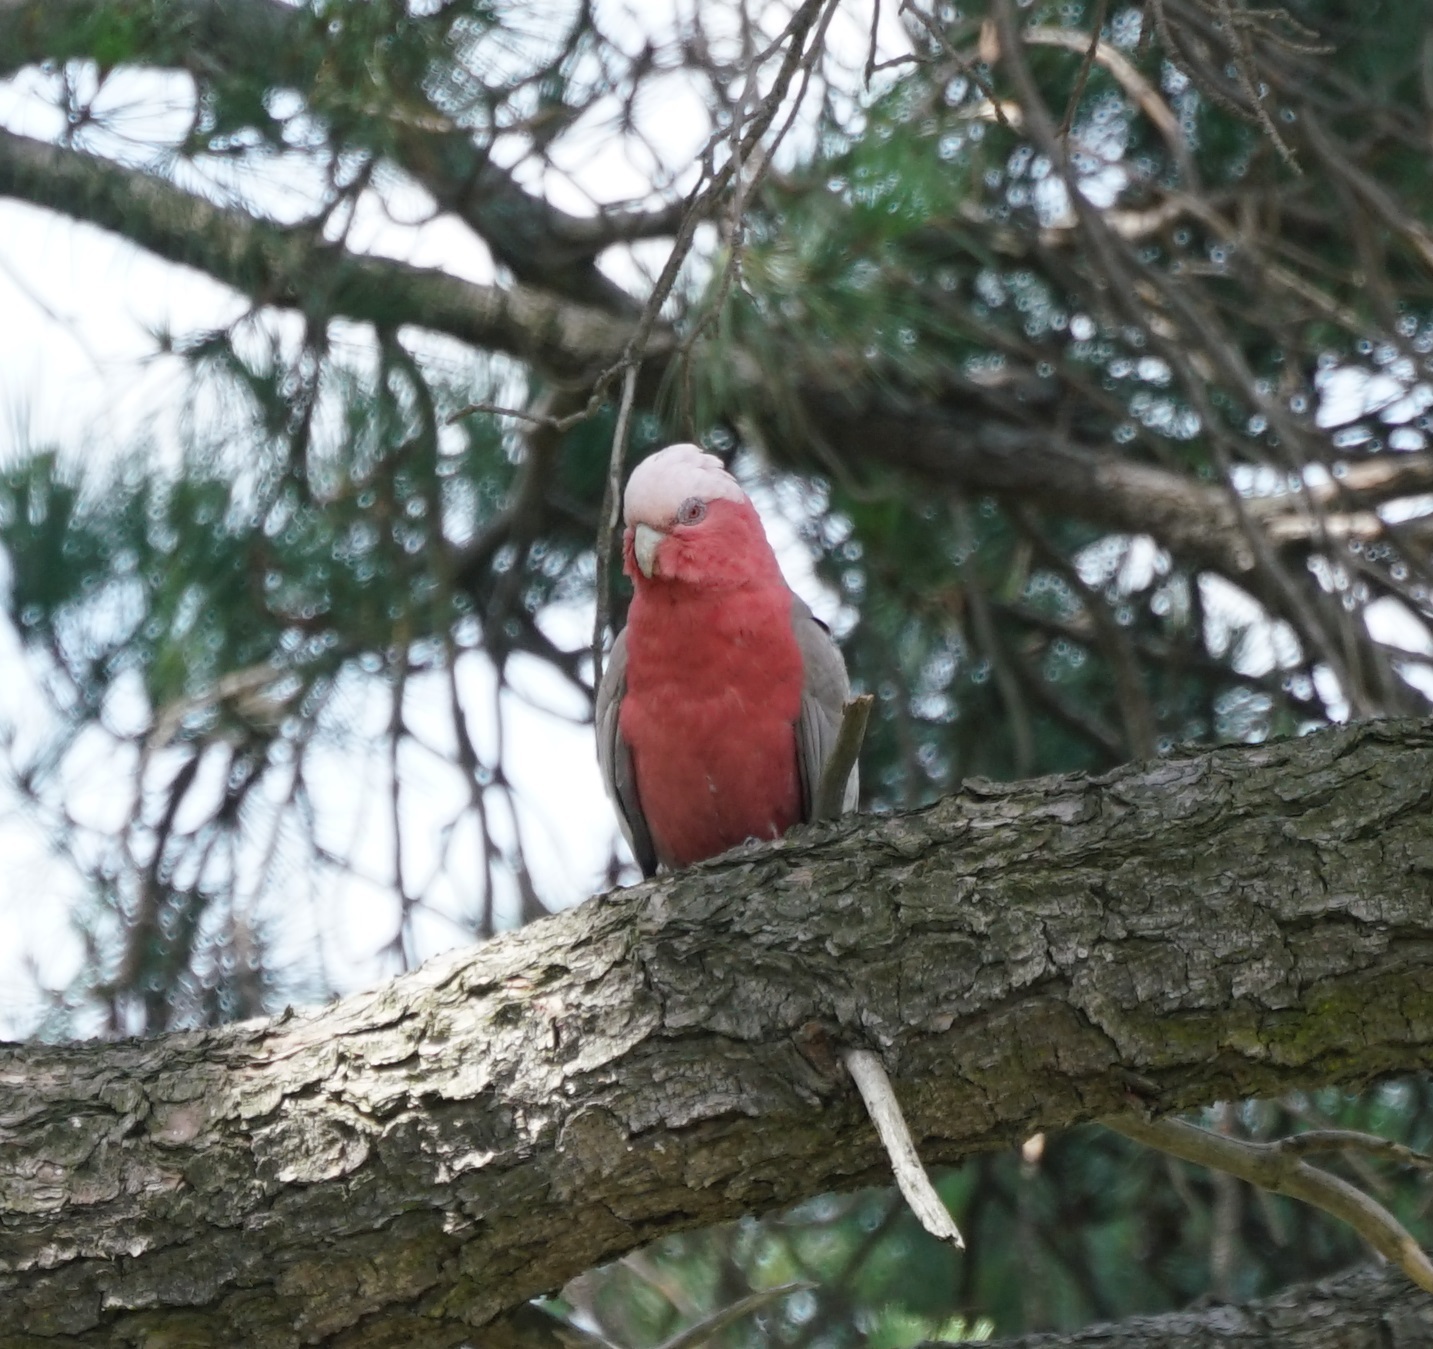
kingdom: Animalia
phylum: Chordata
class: Aves
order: Psittaciformes
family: Psittacidae
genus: Eolophus
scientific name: Eolophus roseicapilla
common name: Galah
